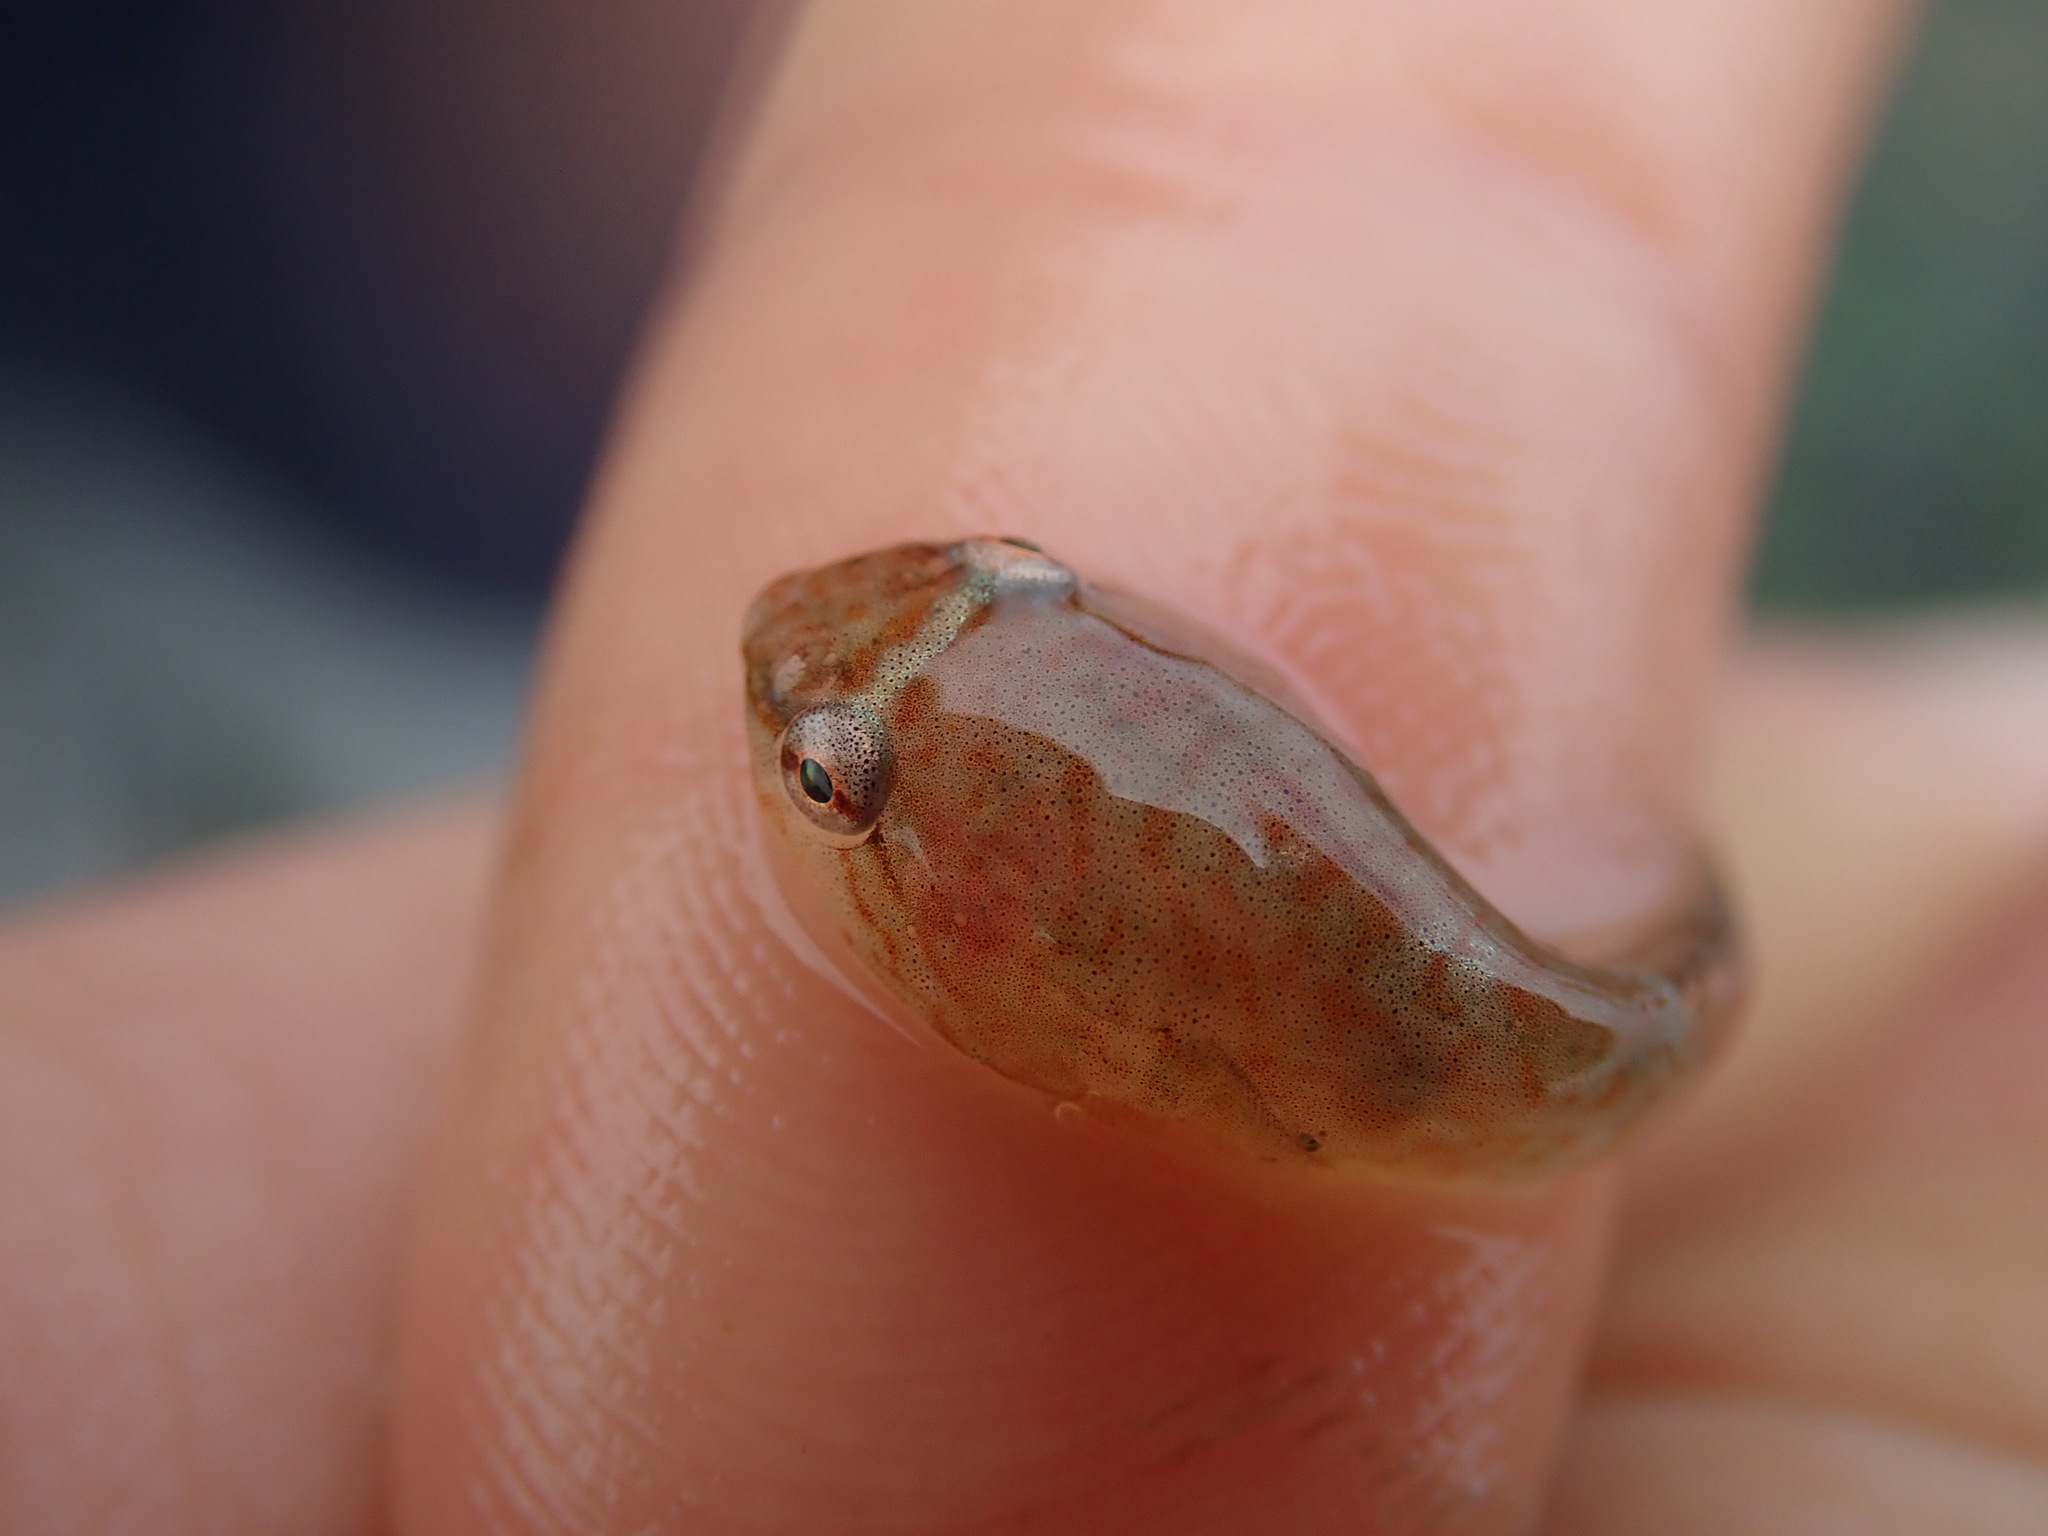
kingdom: Animalia
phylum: Chordata
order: Gobiesociformes
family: Gobiesocidae
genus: Gobiesox
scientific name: Gobiesox maeandricus
